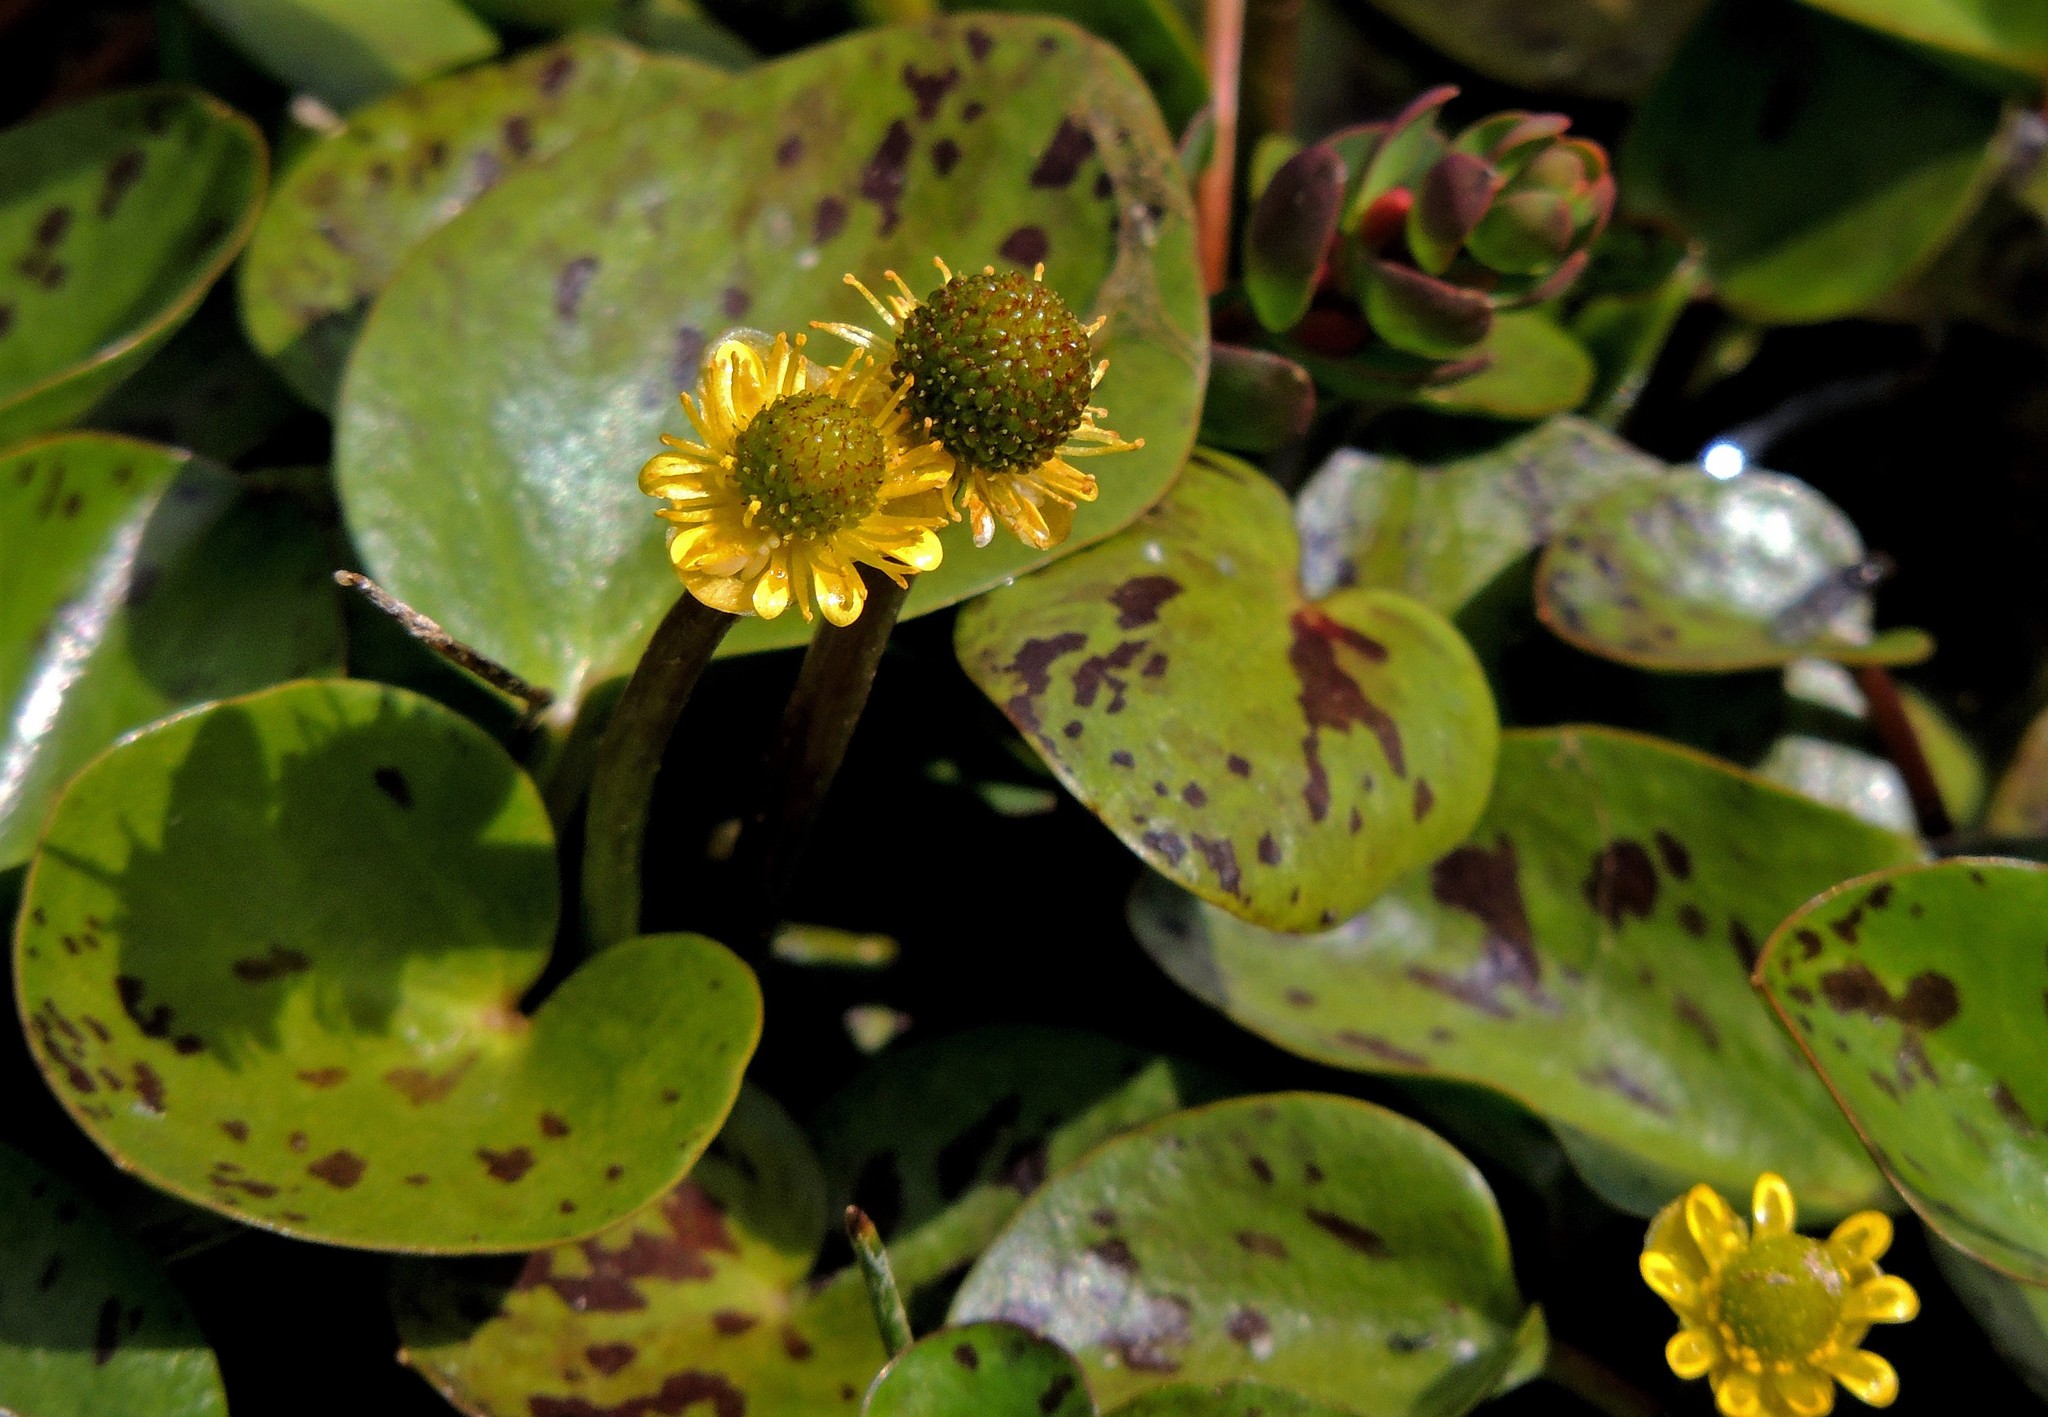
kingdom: Plantae
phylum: Tracheophyta
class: Magnoliopsida
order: Ranunculales
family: Ranunculaceae
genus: Halerpestes
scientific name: Halerpestes uniflora
